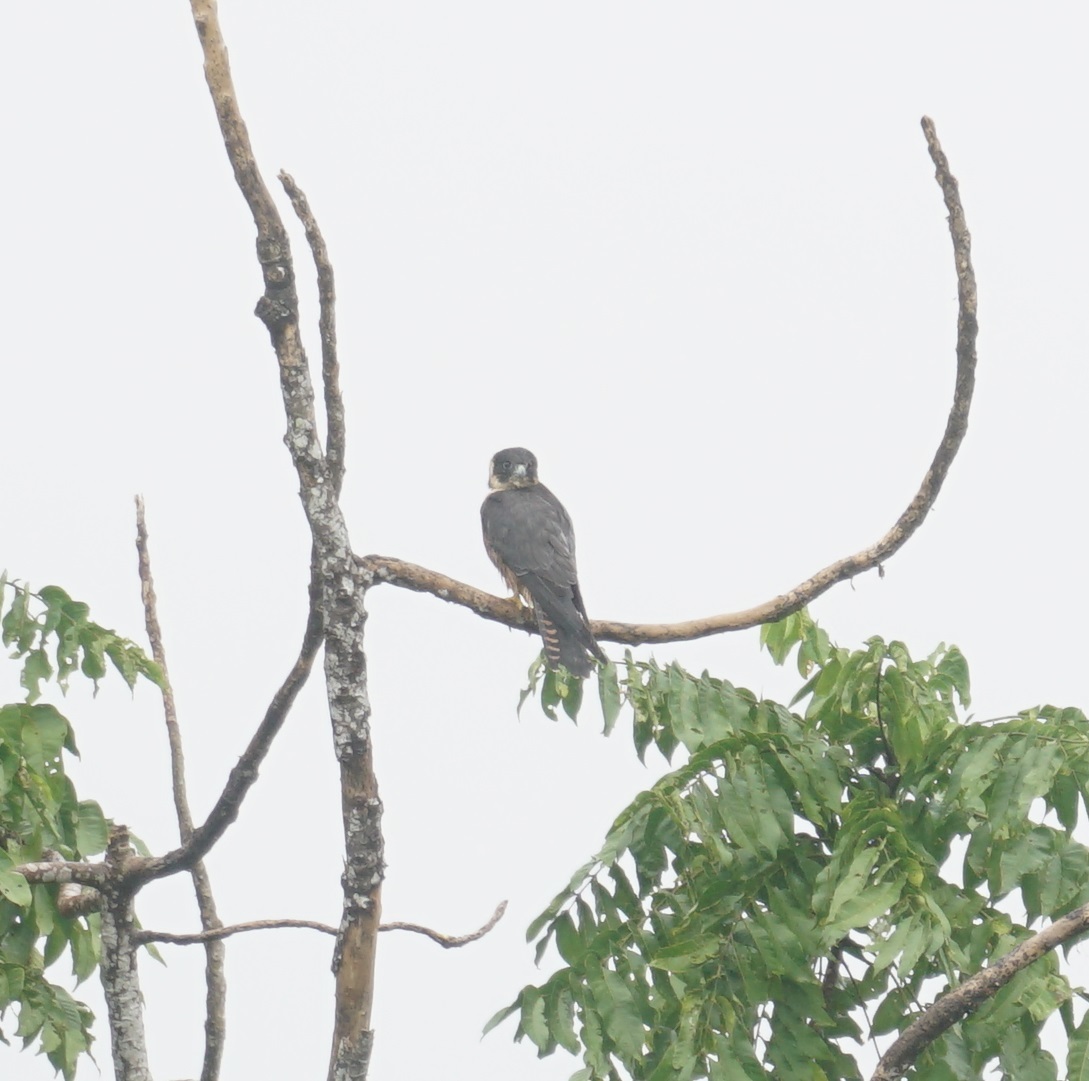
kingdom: Animalia
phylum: Chordata
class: Aves
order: Falconiformes
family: Falconidae
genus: Falco
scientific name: Falco longipennis
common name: Australian hobby
